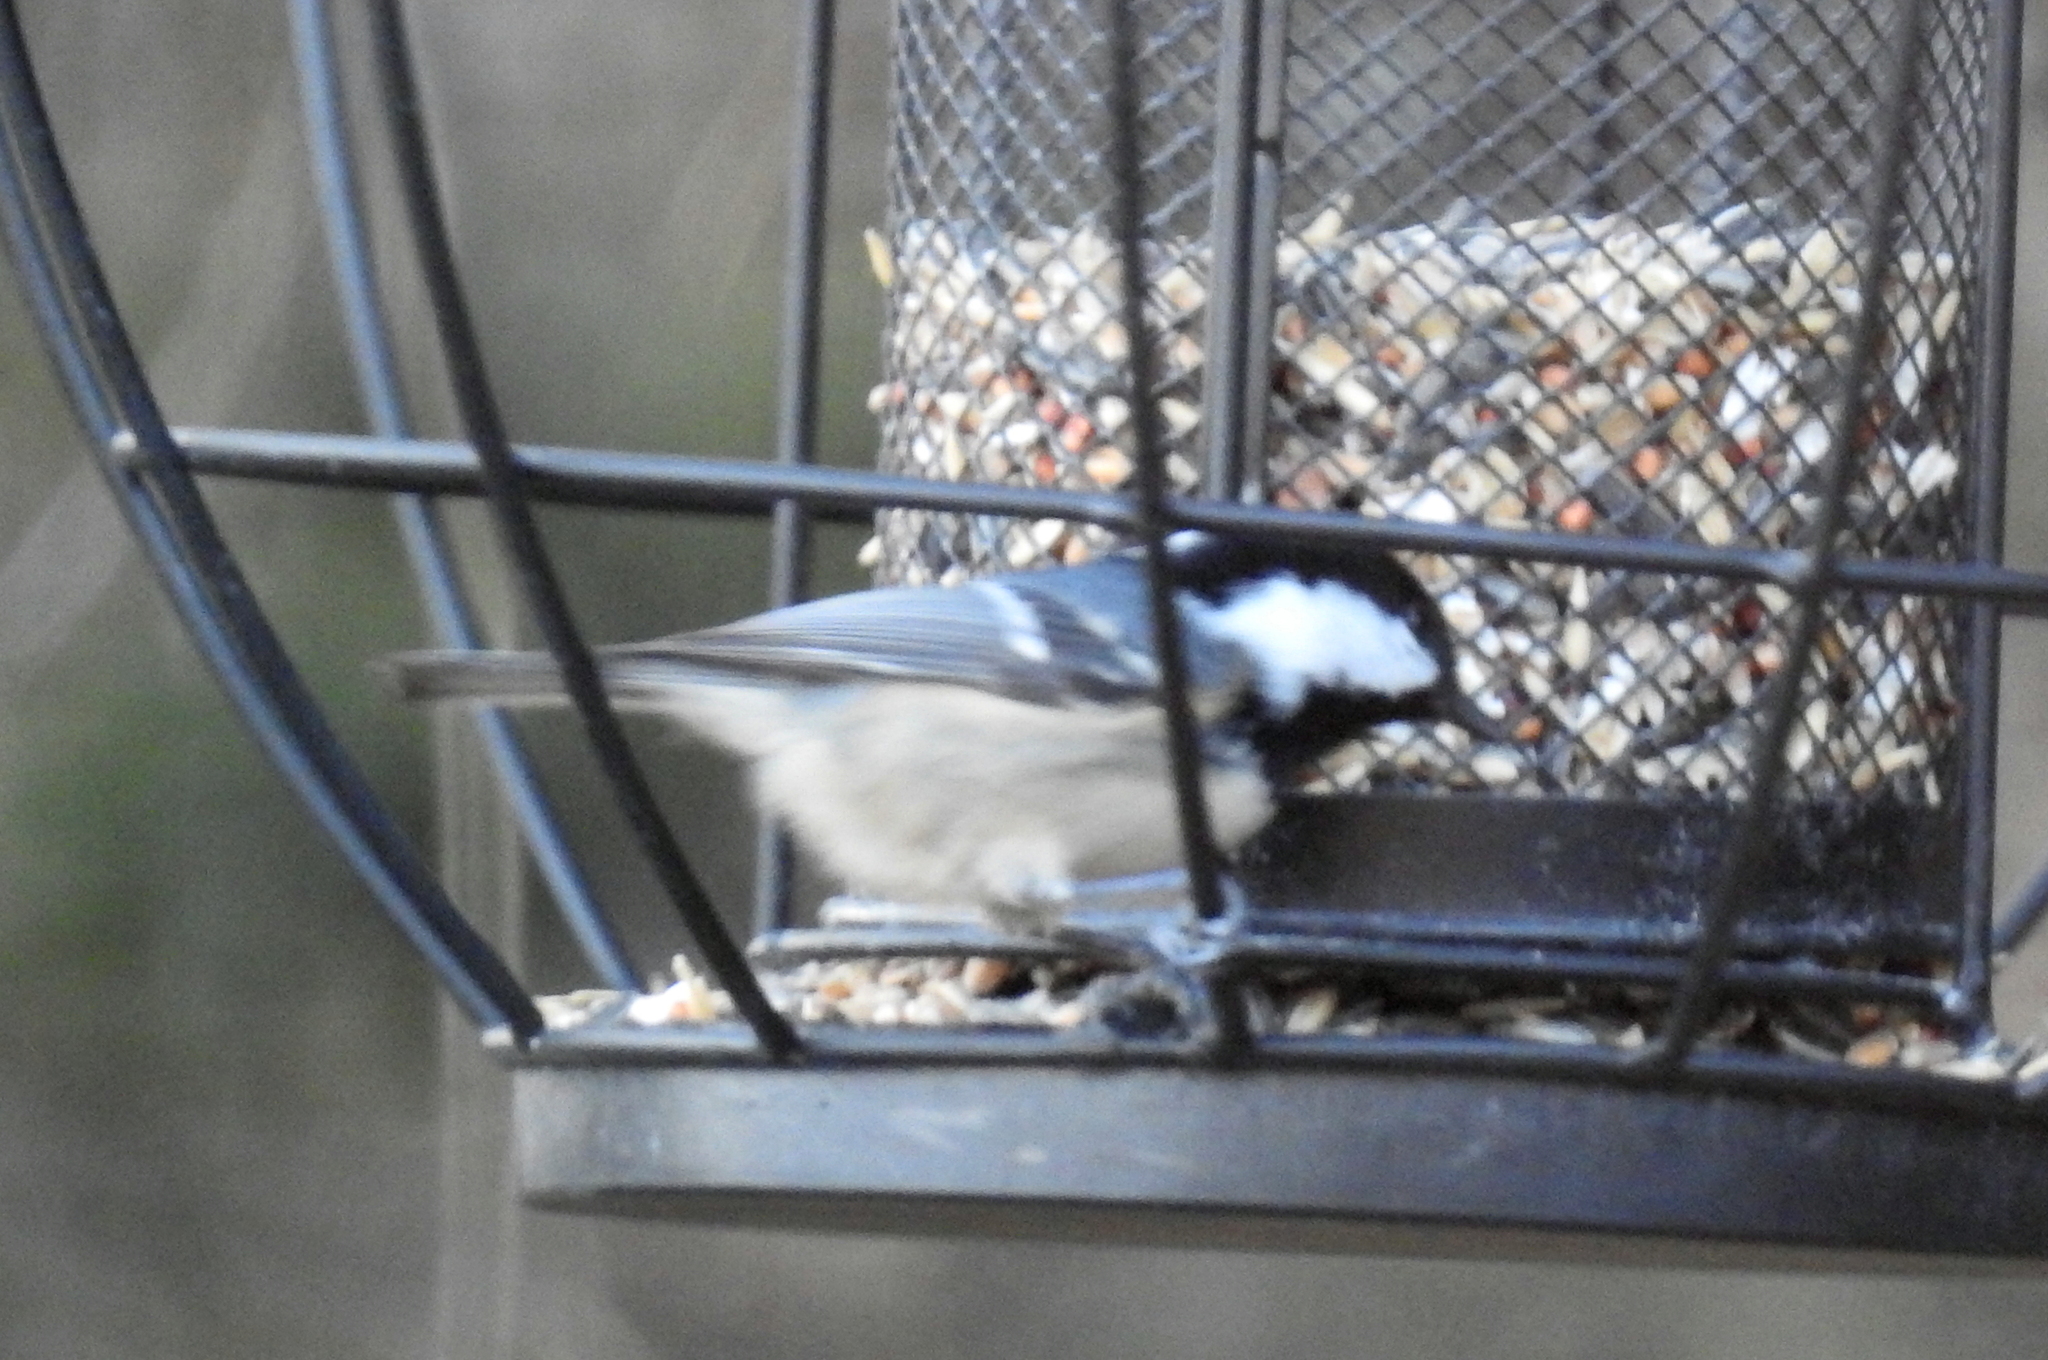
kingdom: Animalia
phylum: Chordata
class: Aves
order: Passeriformes
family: Paridae
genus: Periparus
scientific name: Periparus ater
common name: Coal tit
